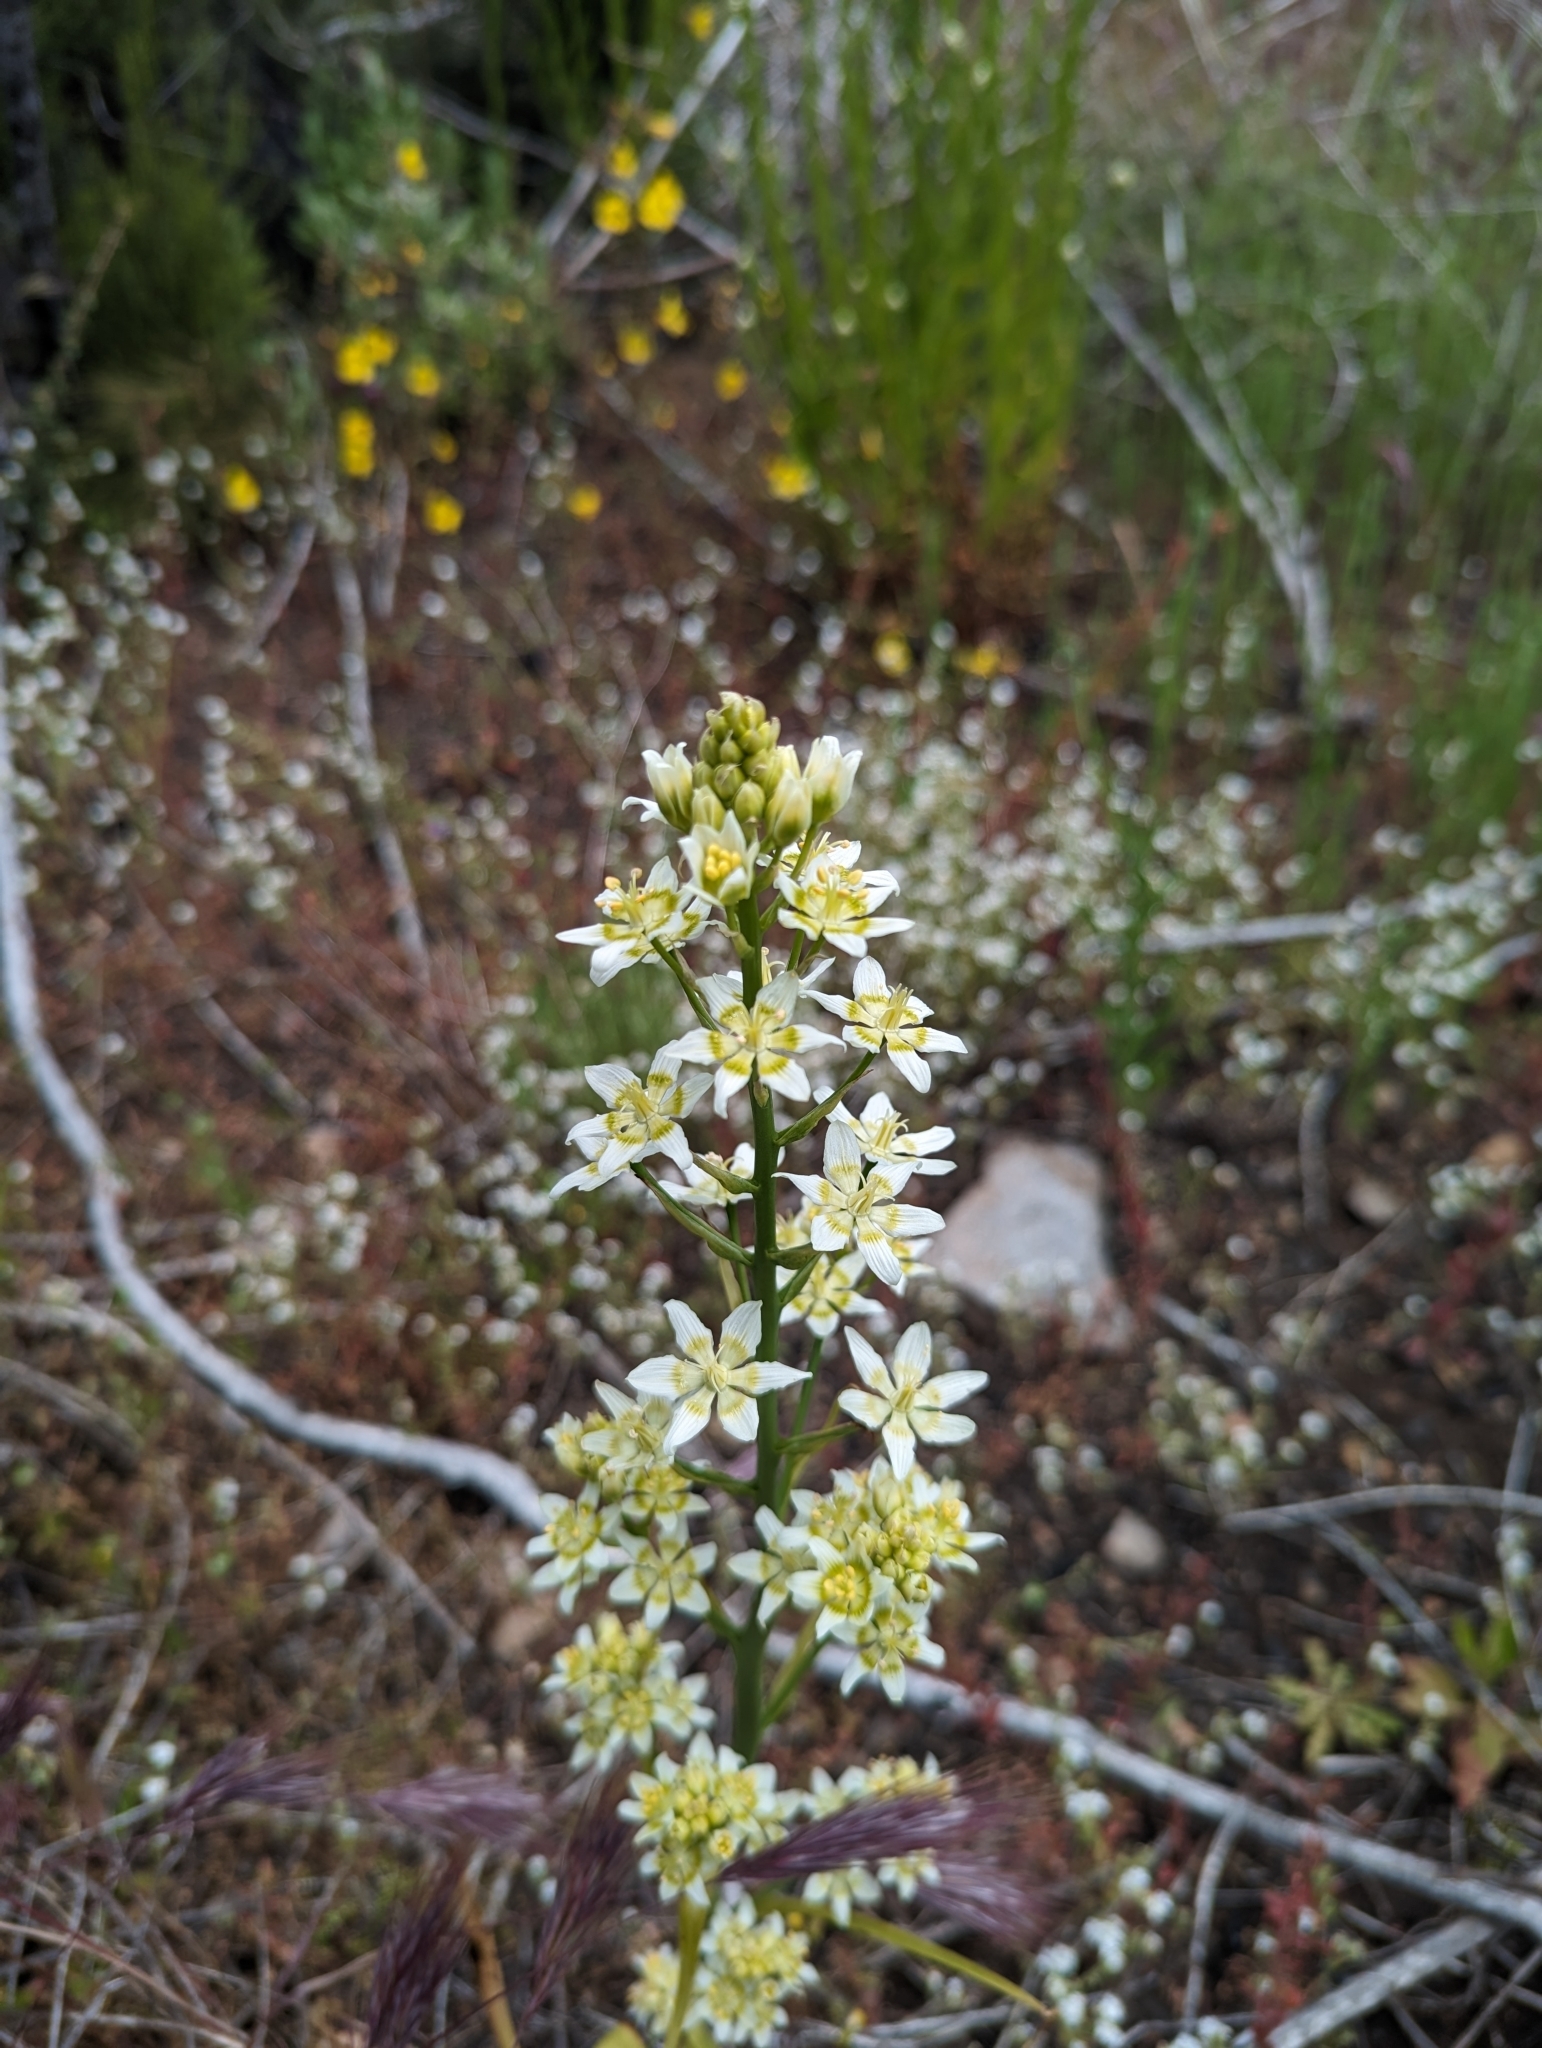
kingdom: Plantae
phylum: Tracheophyta
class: Liliopsida
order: Liliales
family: Melanthiaceae
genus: Toxicoscordion
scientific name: Toxicoscordion fremontii
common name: Fremont's death camas
